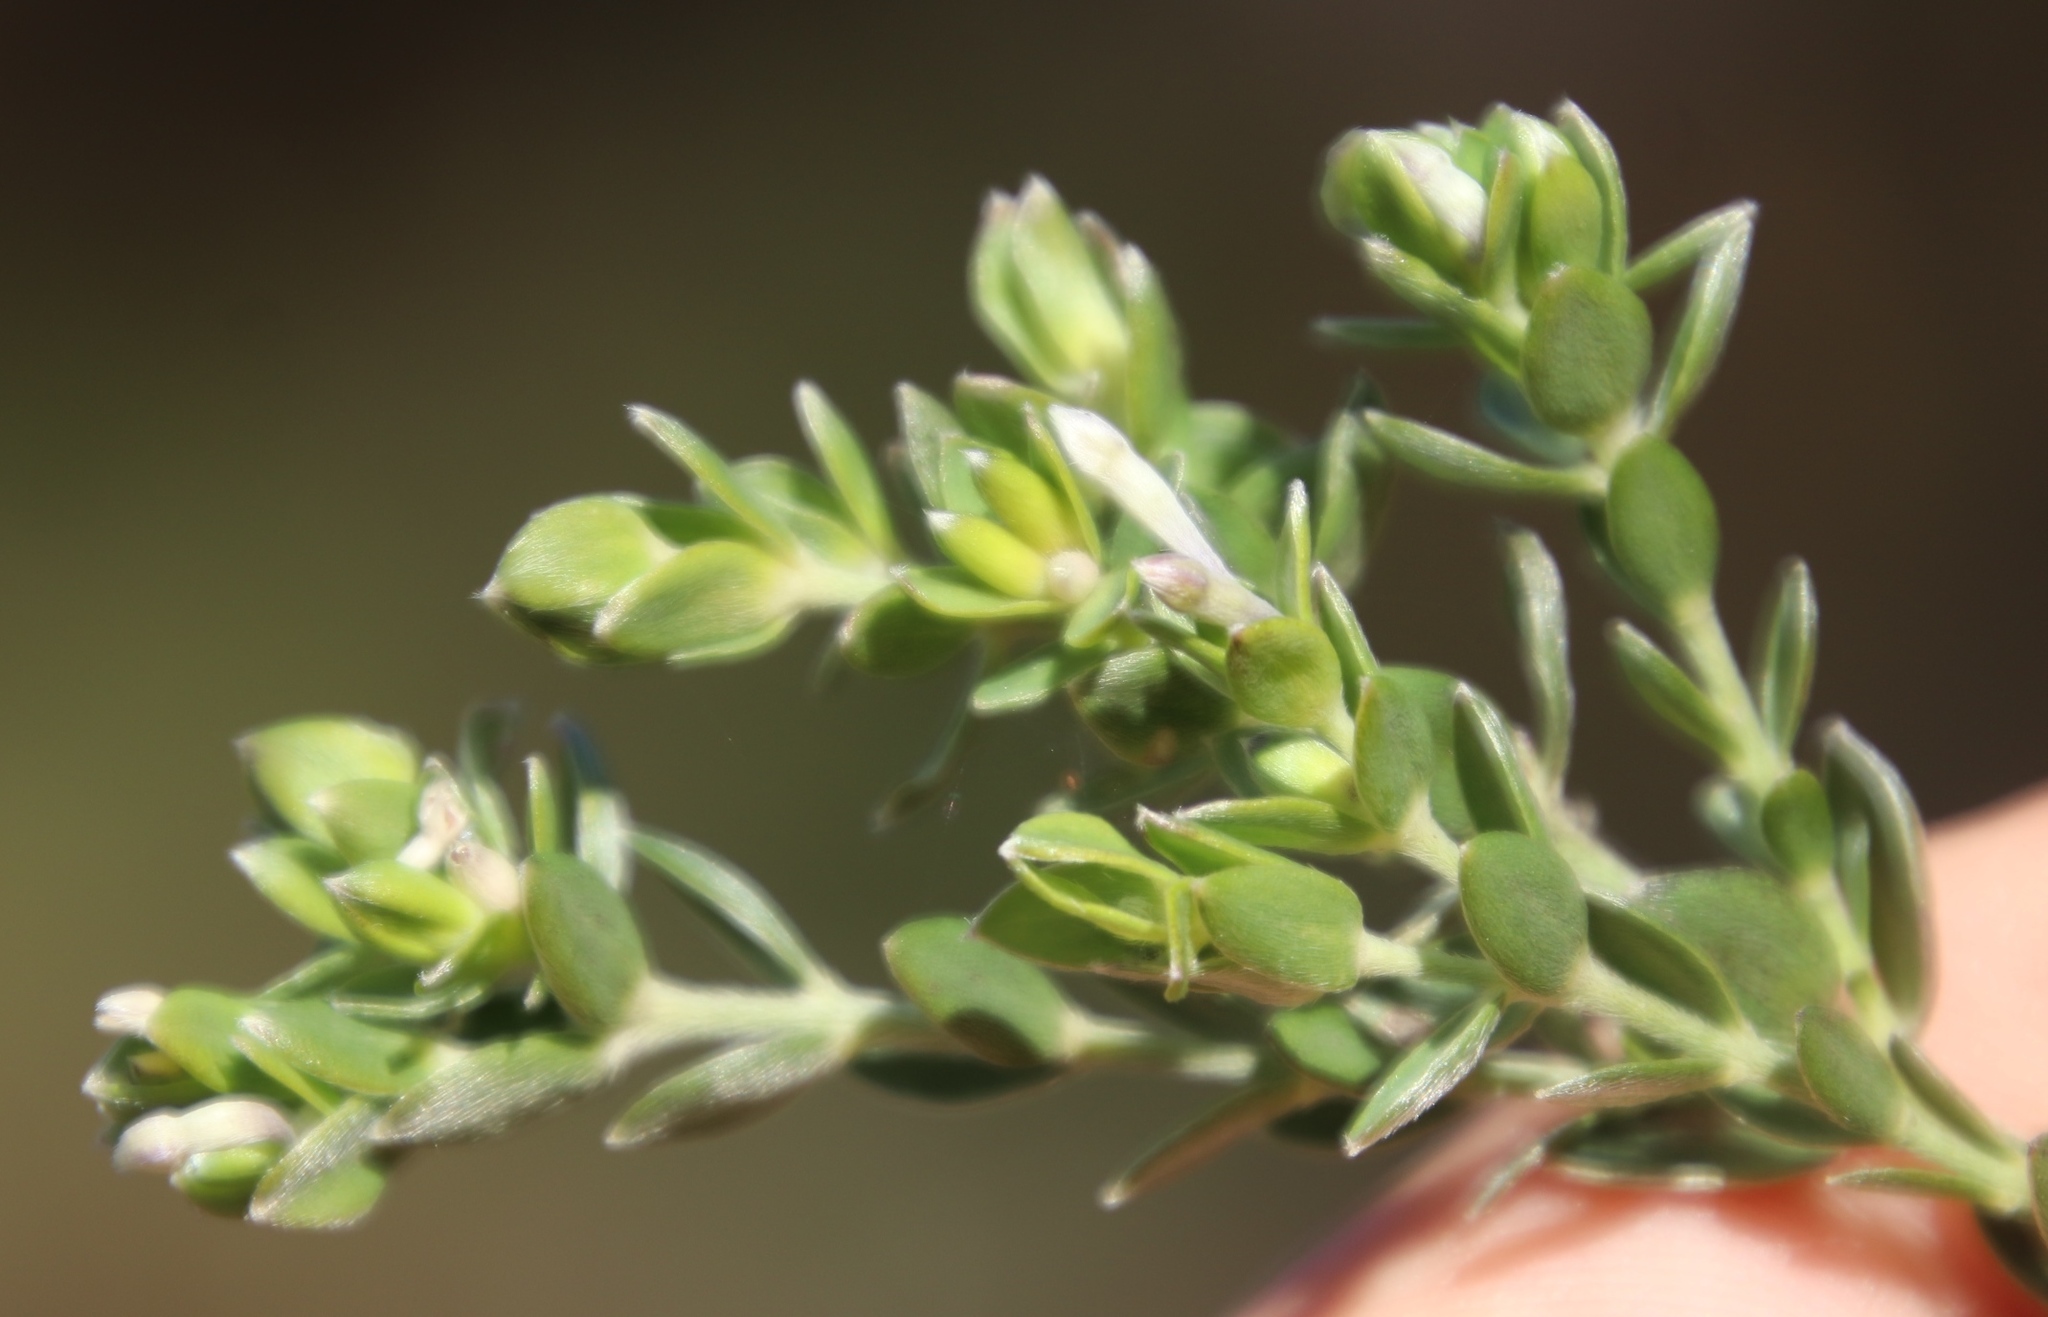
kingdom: Plantae
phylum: Tracheophyta
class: Magnoliopsida
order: Malvales
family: Thymelaeaceae
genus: Gnidia
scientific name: Gnidia sericea
